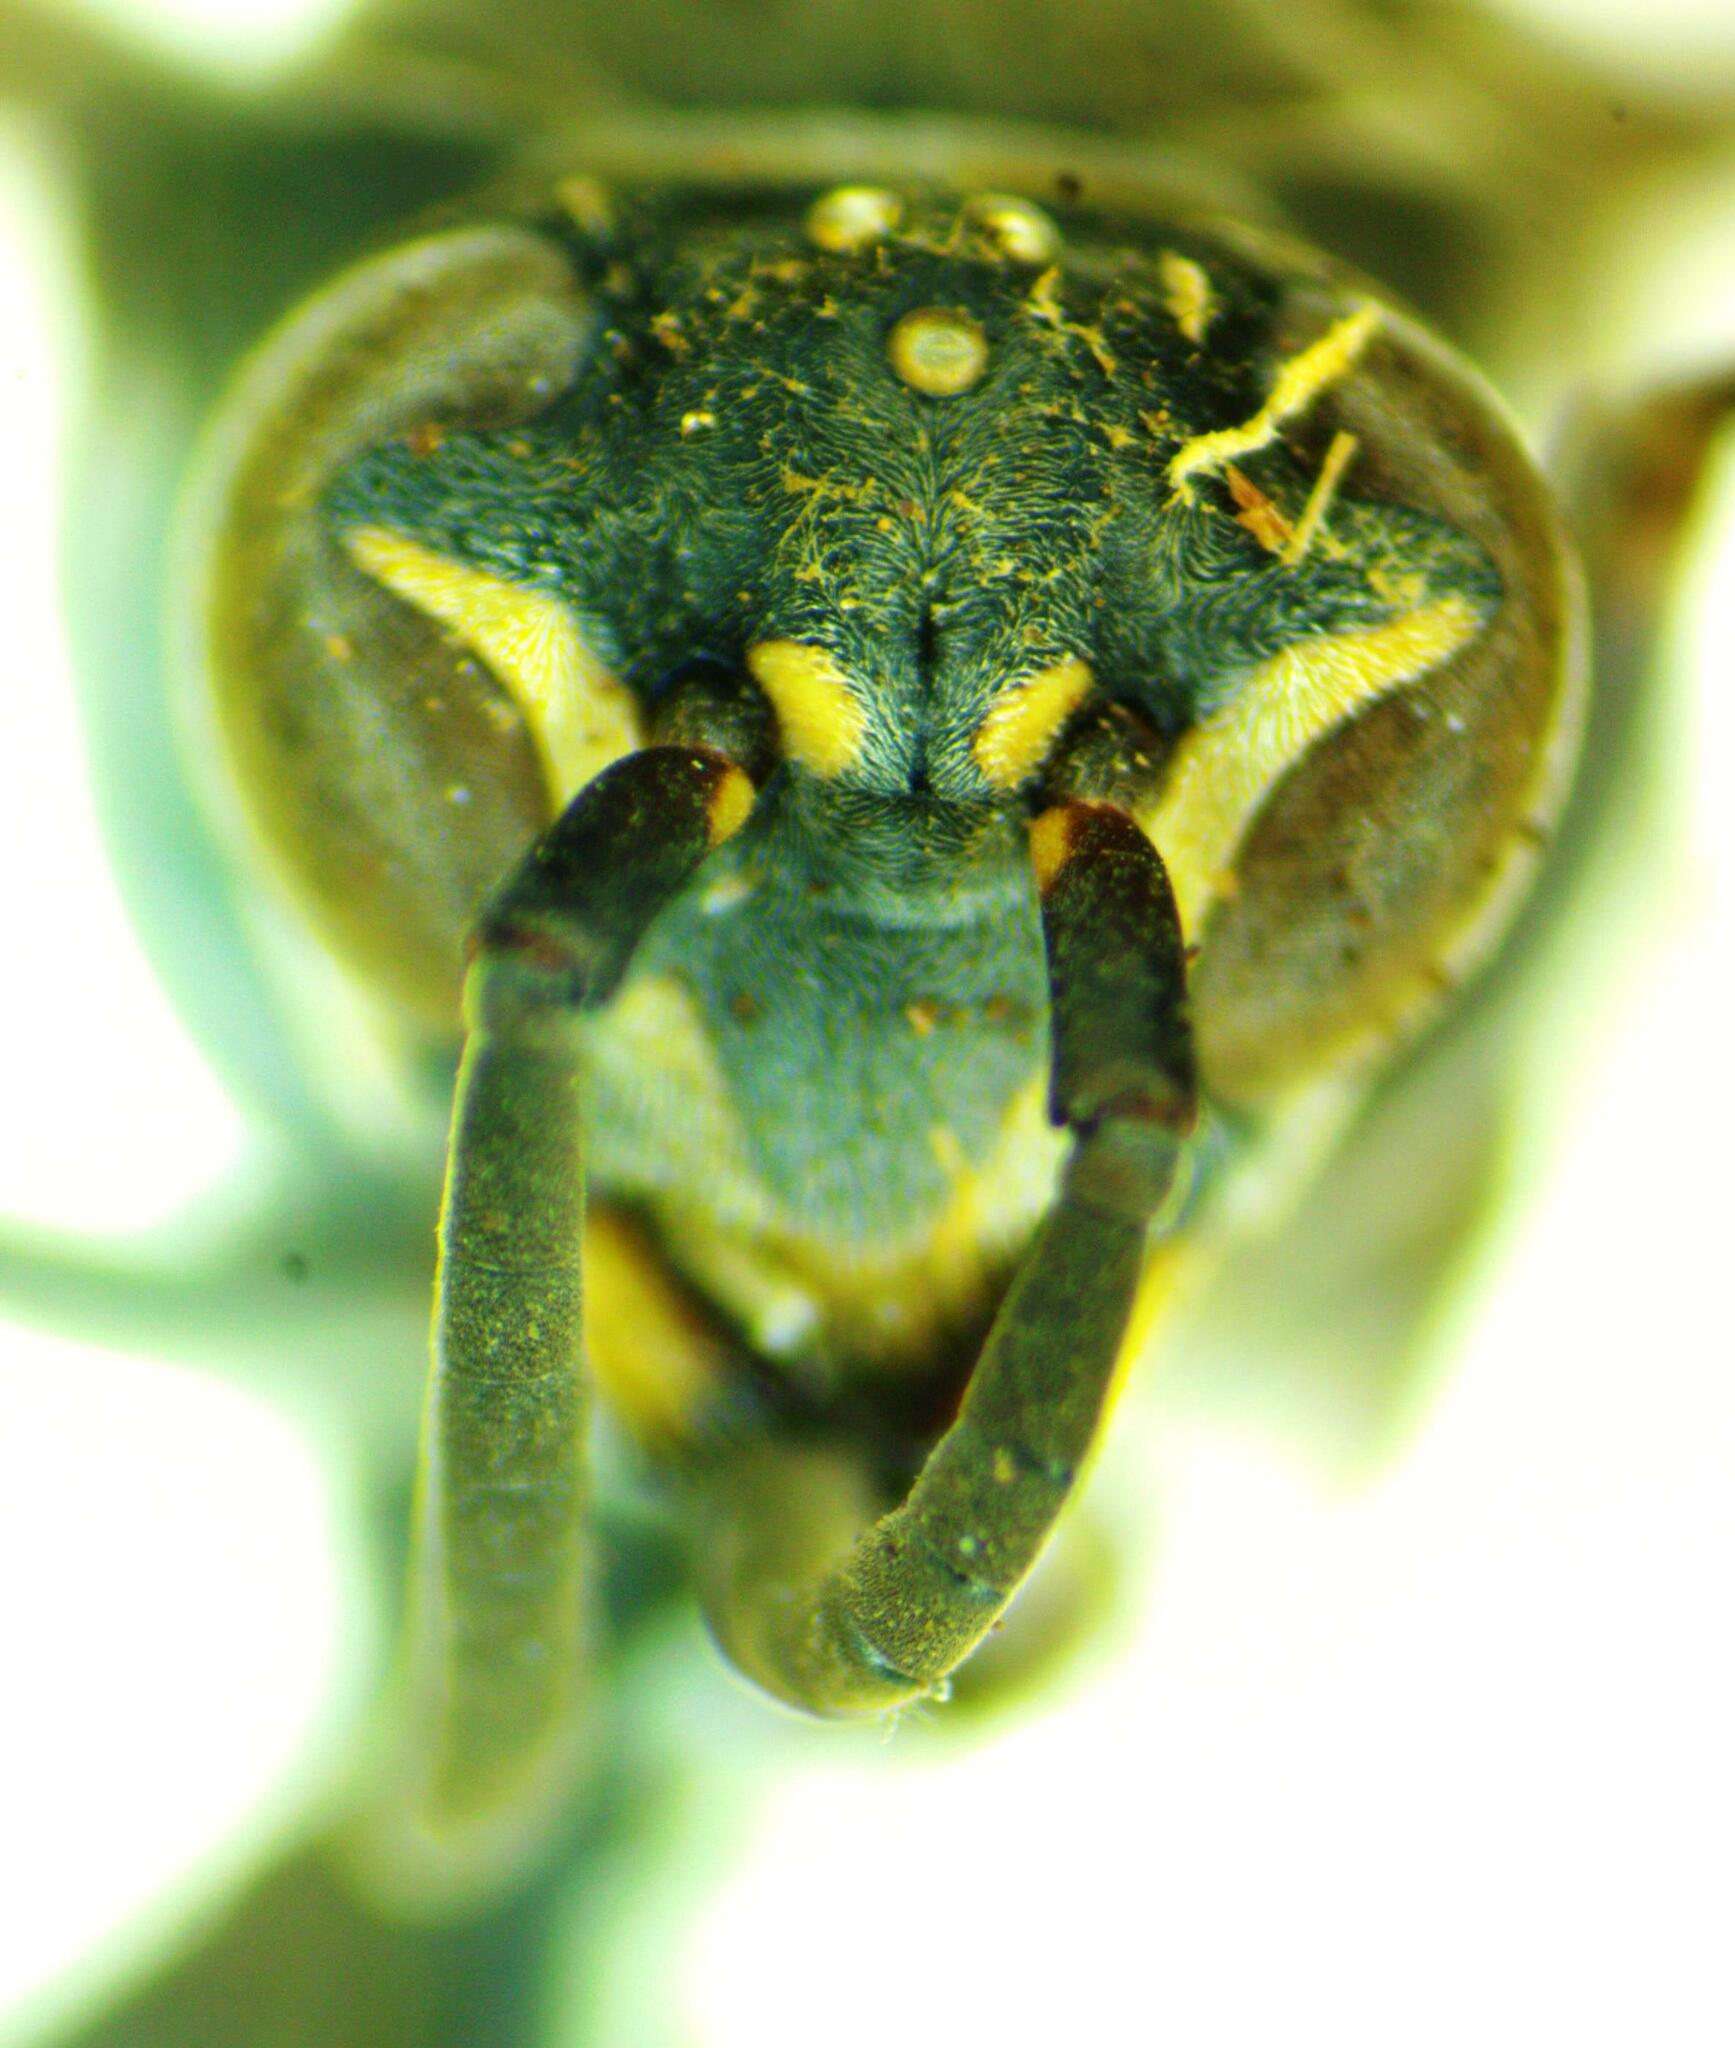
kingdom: Animalia
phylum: Arthropoda
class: Insecta
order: Hymenoptera
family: Vespidae
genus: Parachartergus
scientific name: Parachartergus compressus
